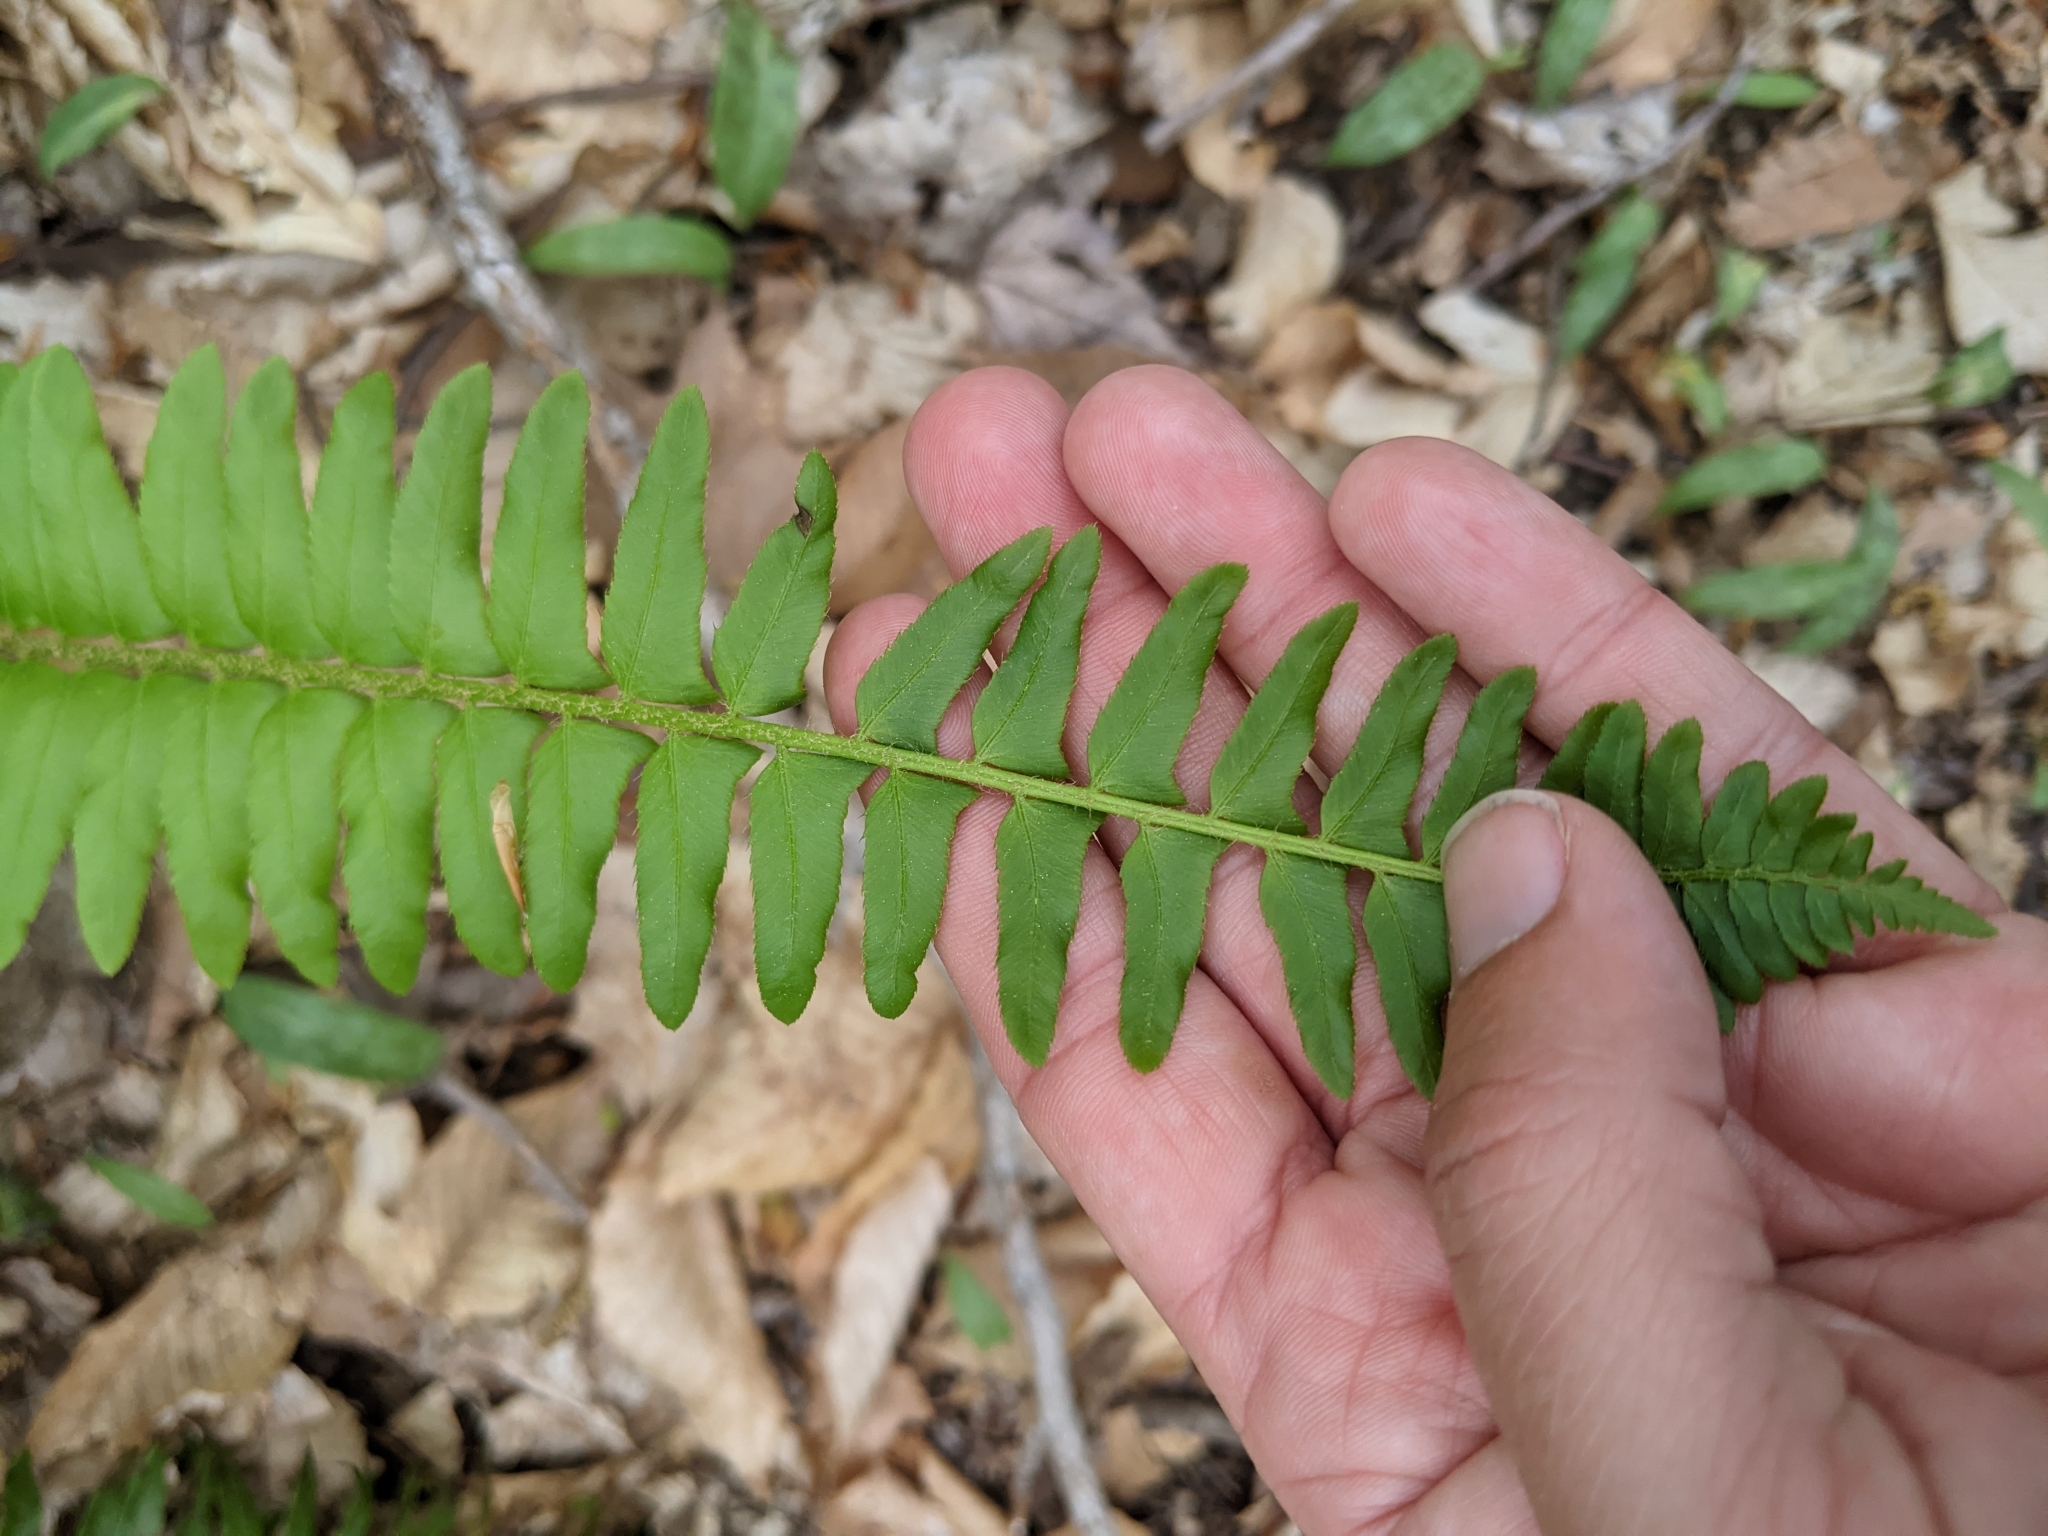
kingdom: Plantae
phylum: Tracheophyta
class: Polypodiopsida
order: Polypodiales
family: Dryopteridaceae
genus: Polystichum
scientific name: Polystichum acrostichoides
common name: Christmas fern
